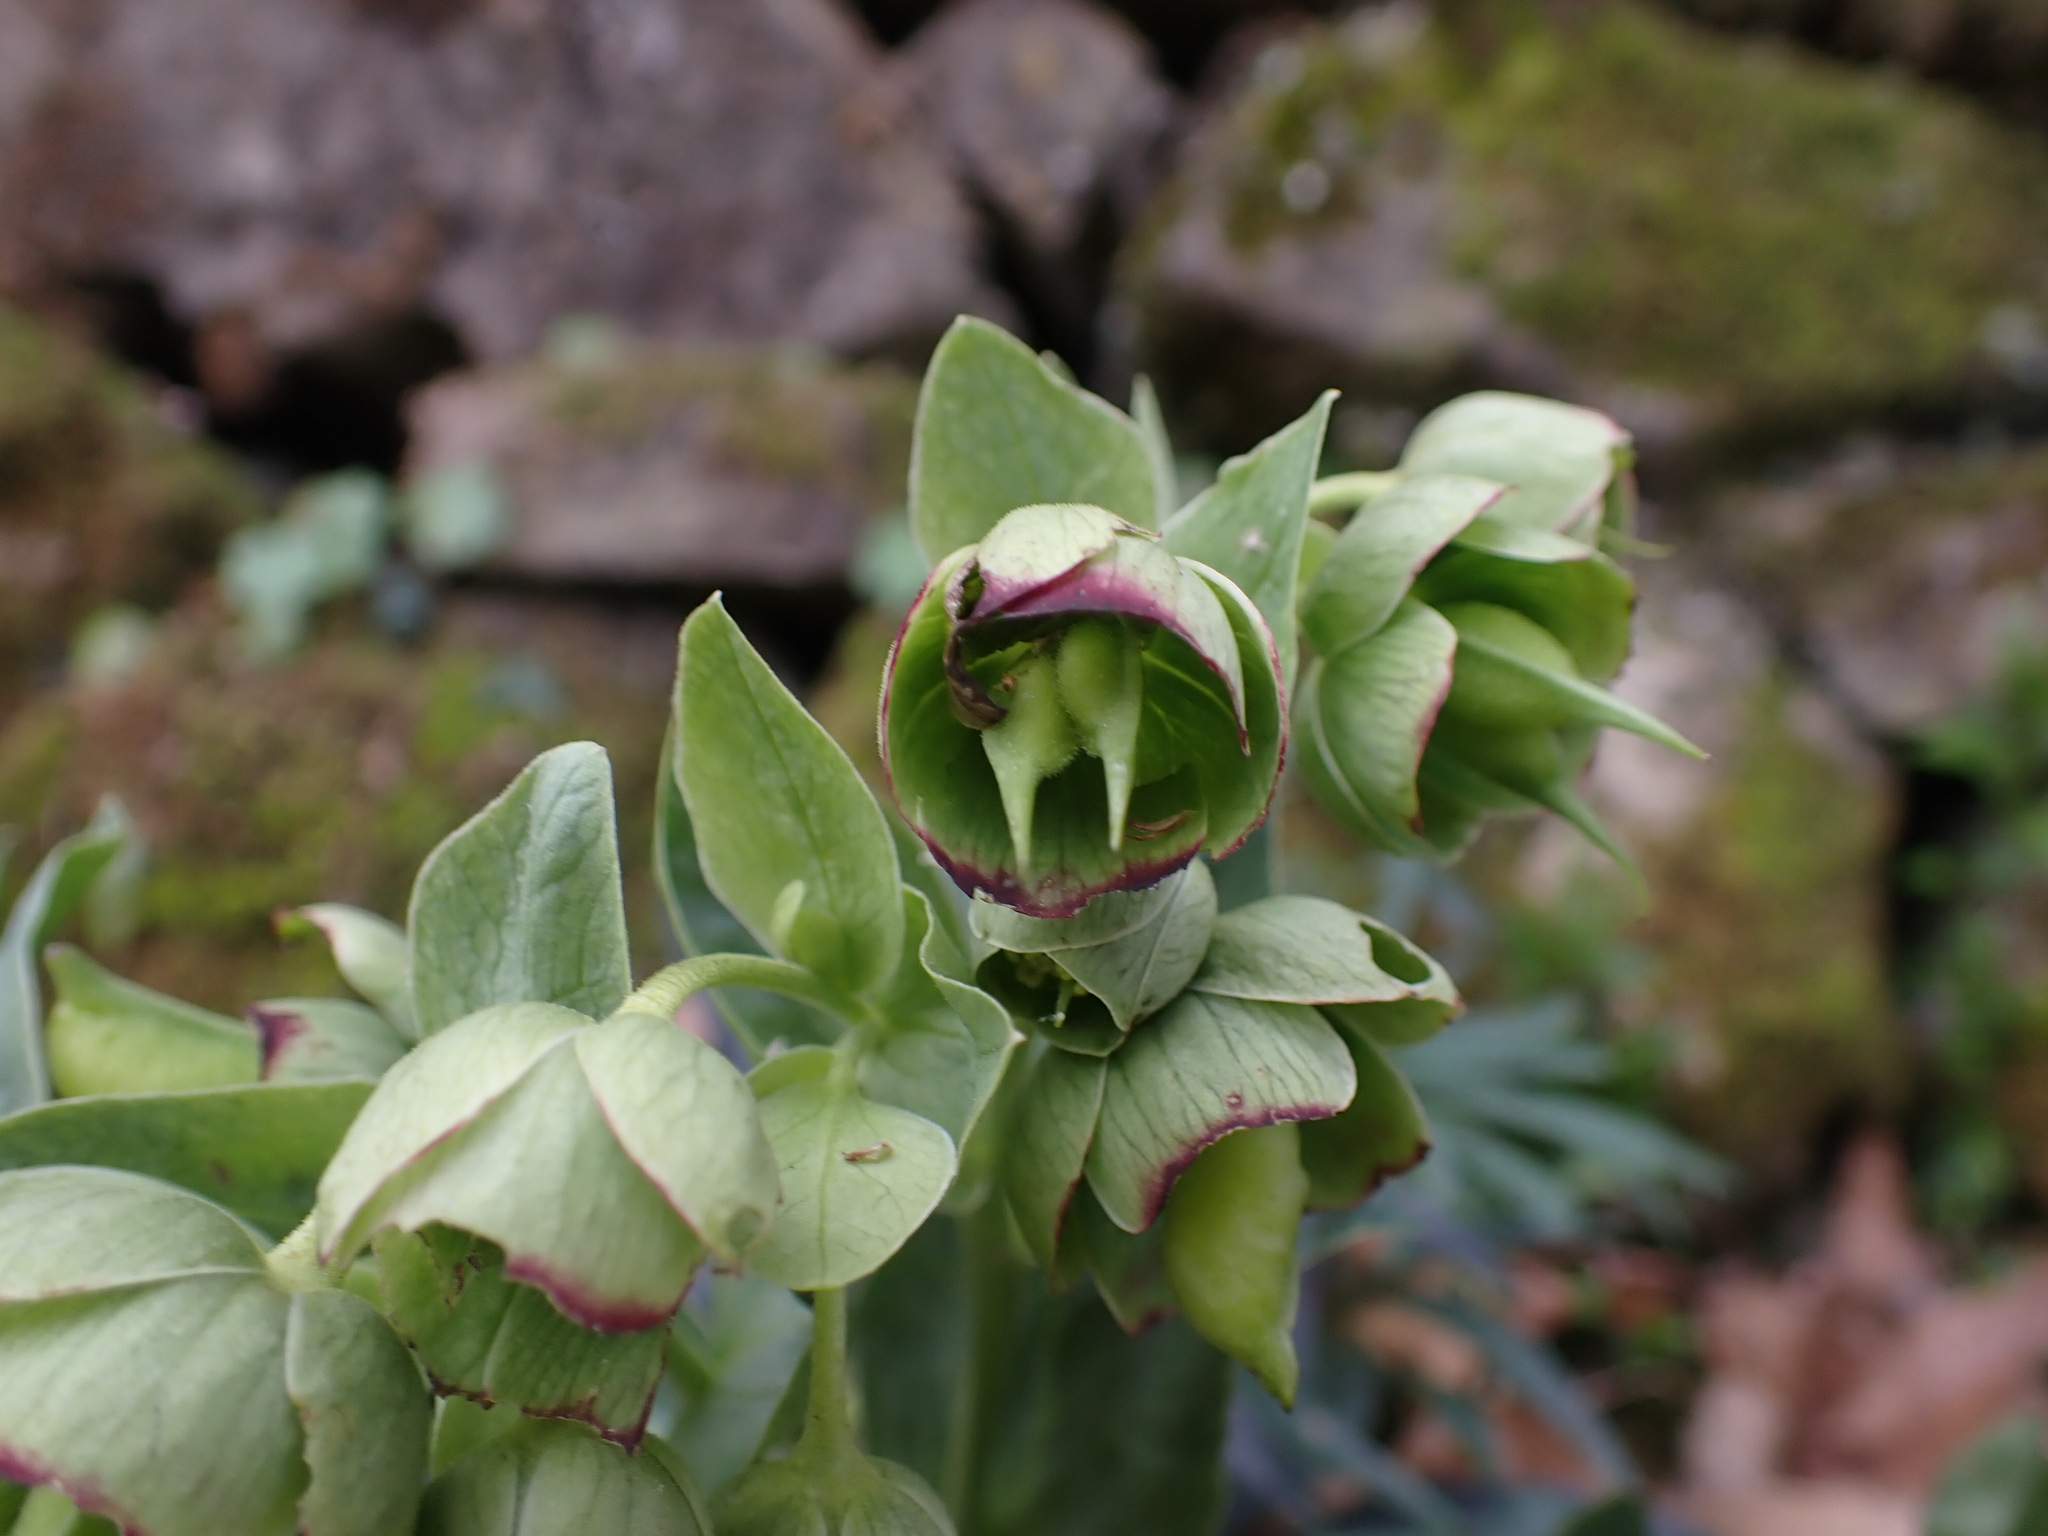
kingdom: Plantae
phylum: Tracheophyta
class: Magnoliopsida
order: Ranunculales
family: Ranunculaceae
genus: Helleborus
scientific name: Helleborus foetidus
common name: Stinking hellebore
